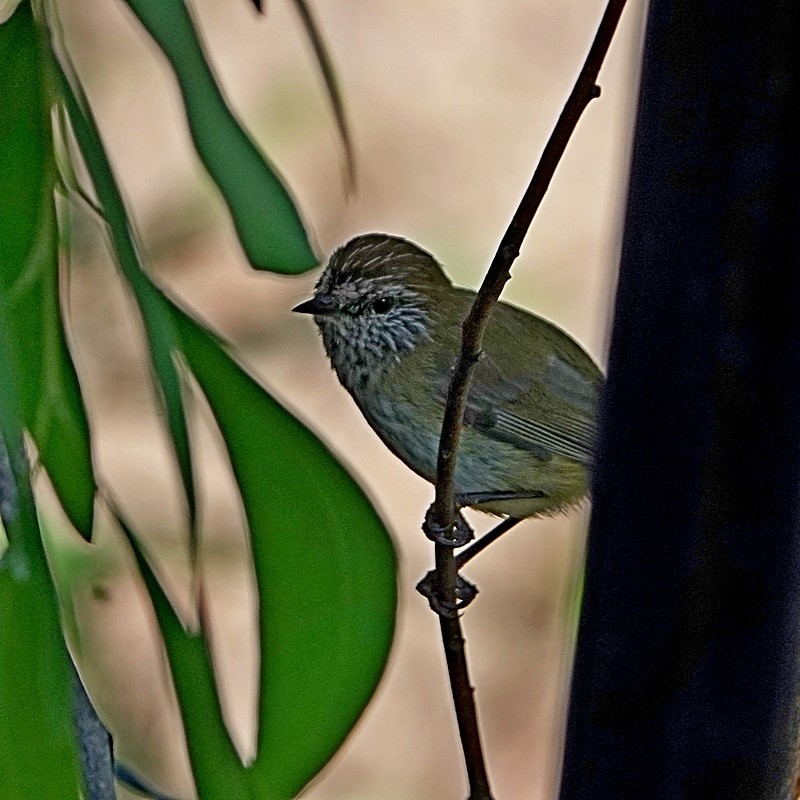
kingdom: Animalia
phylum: Chordata
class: Aves
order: Passeriformes
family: Acanthizidae
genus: Acanthiza
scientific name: Acanthiza lineata
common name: Striated thornbill
